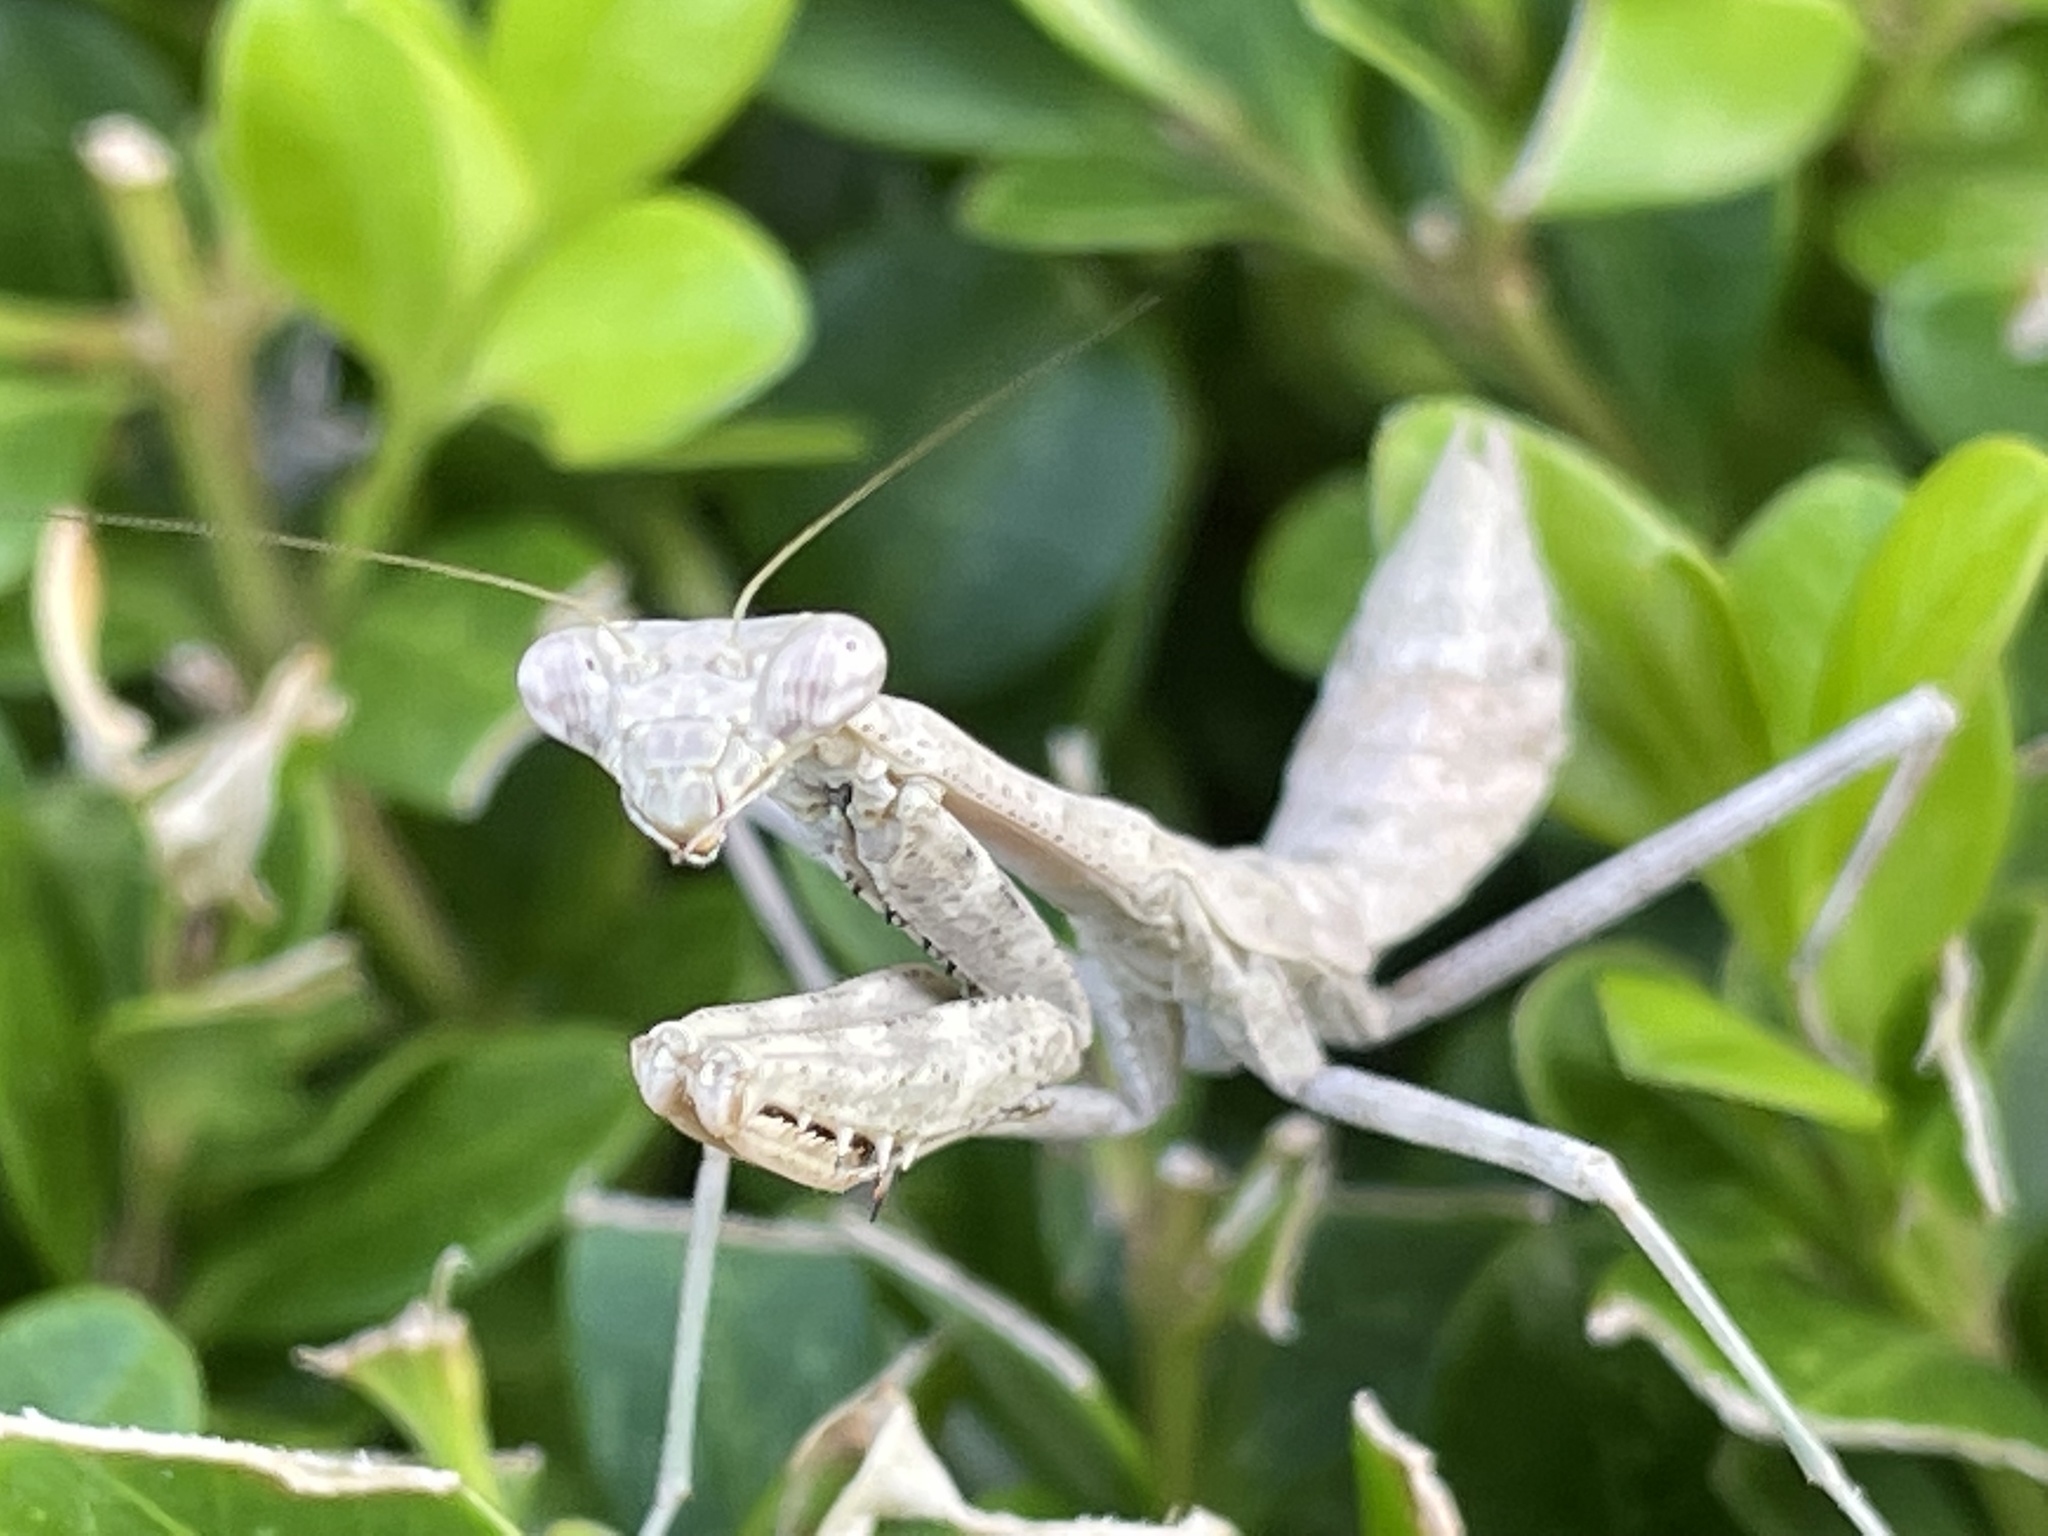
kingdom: Animalia
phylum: Arthropoda
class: Insecta
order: Mantodea
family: Mantidae
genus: Stagmomantis
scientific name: Stagmomantis carolina
